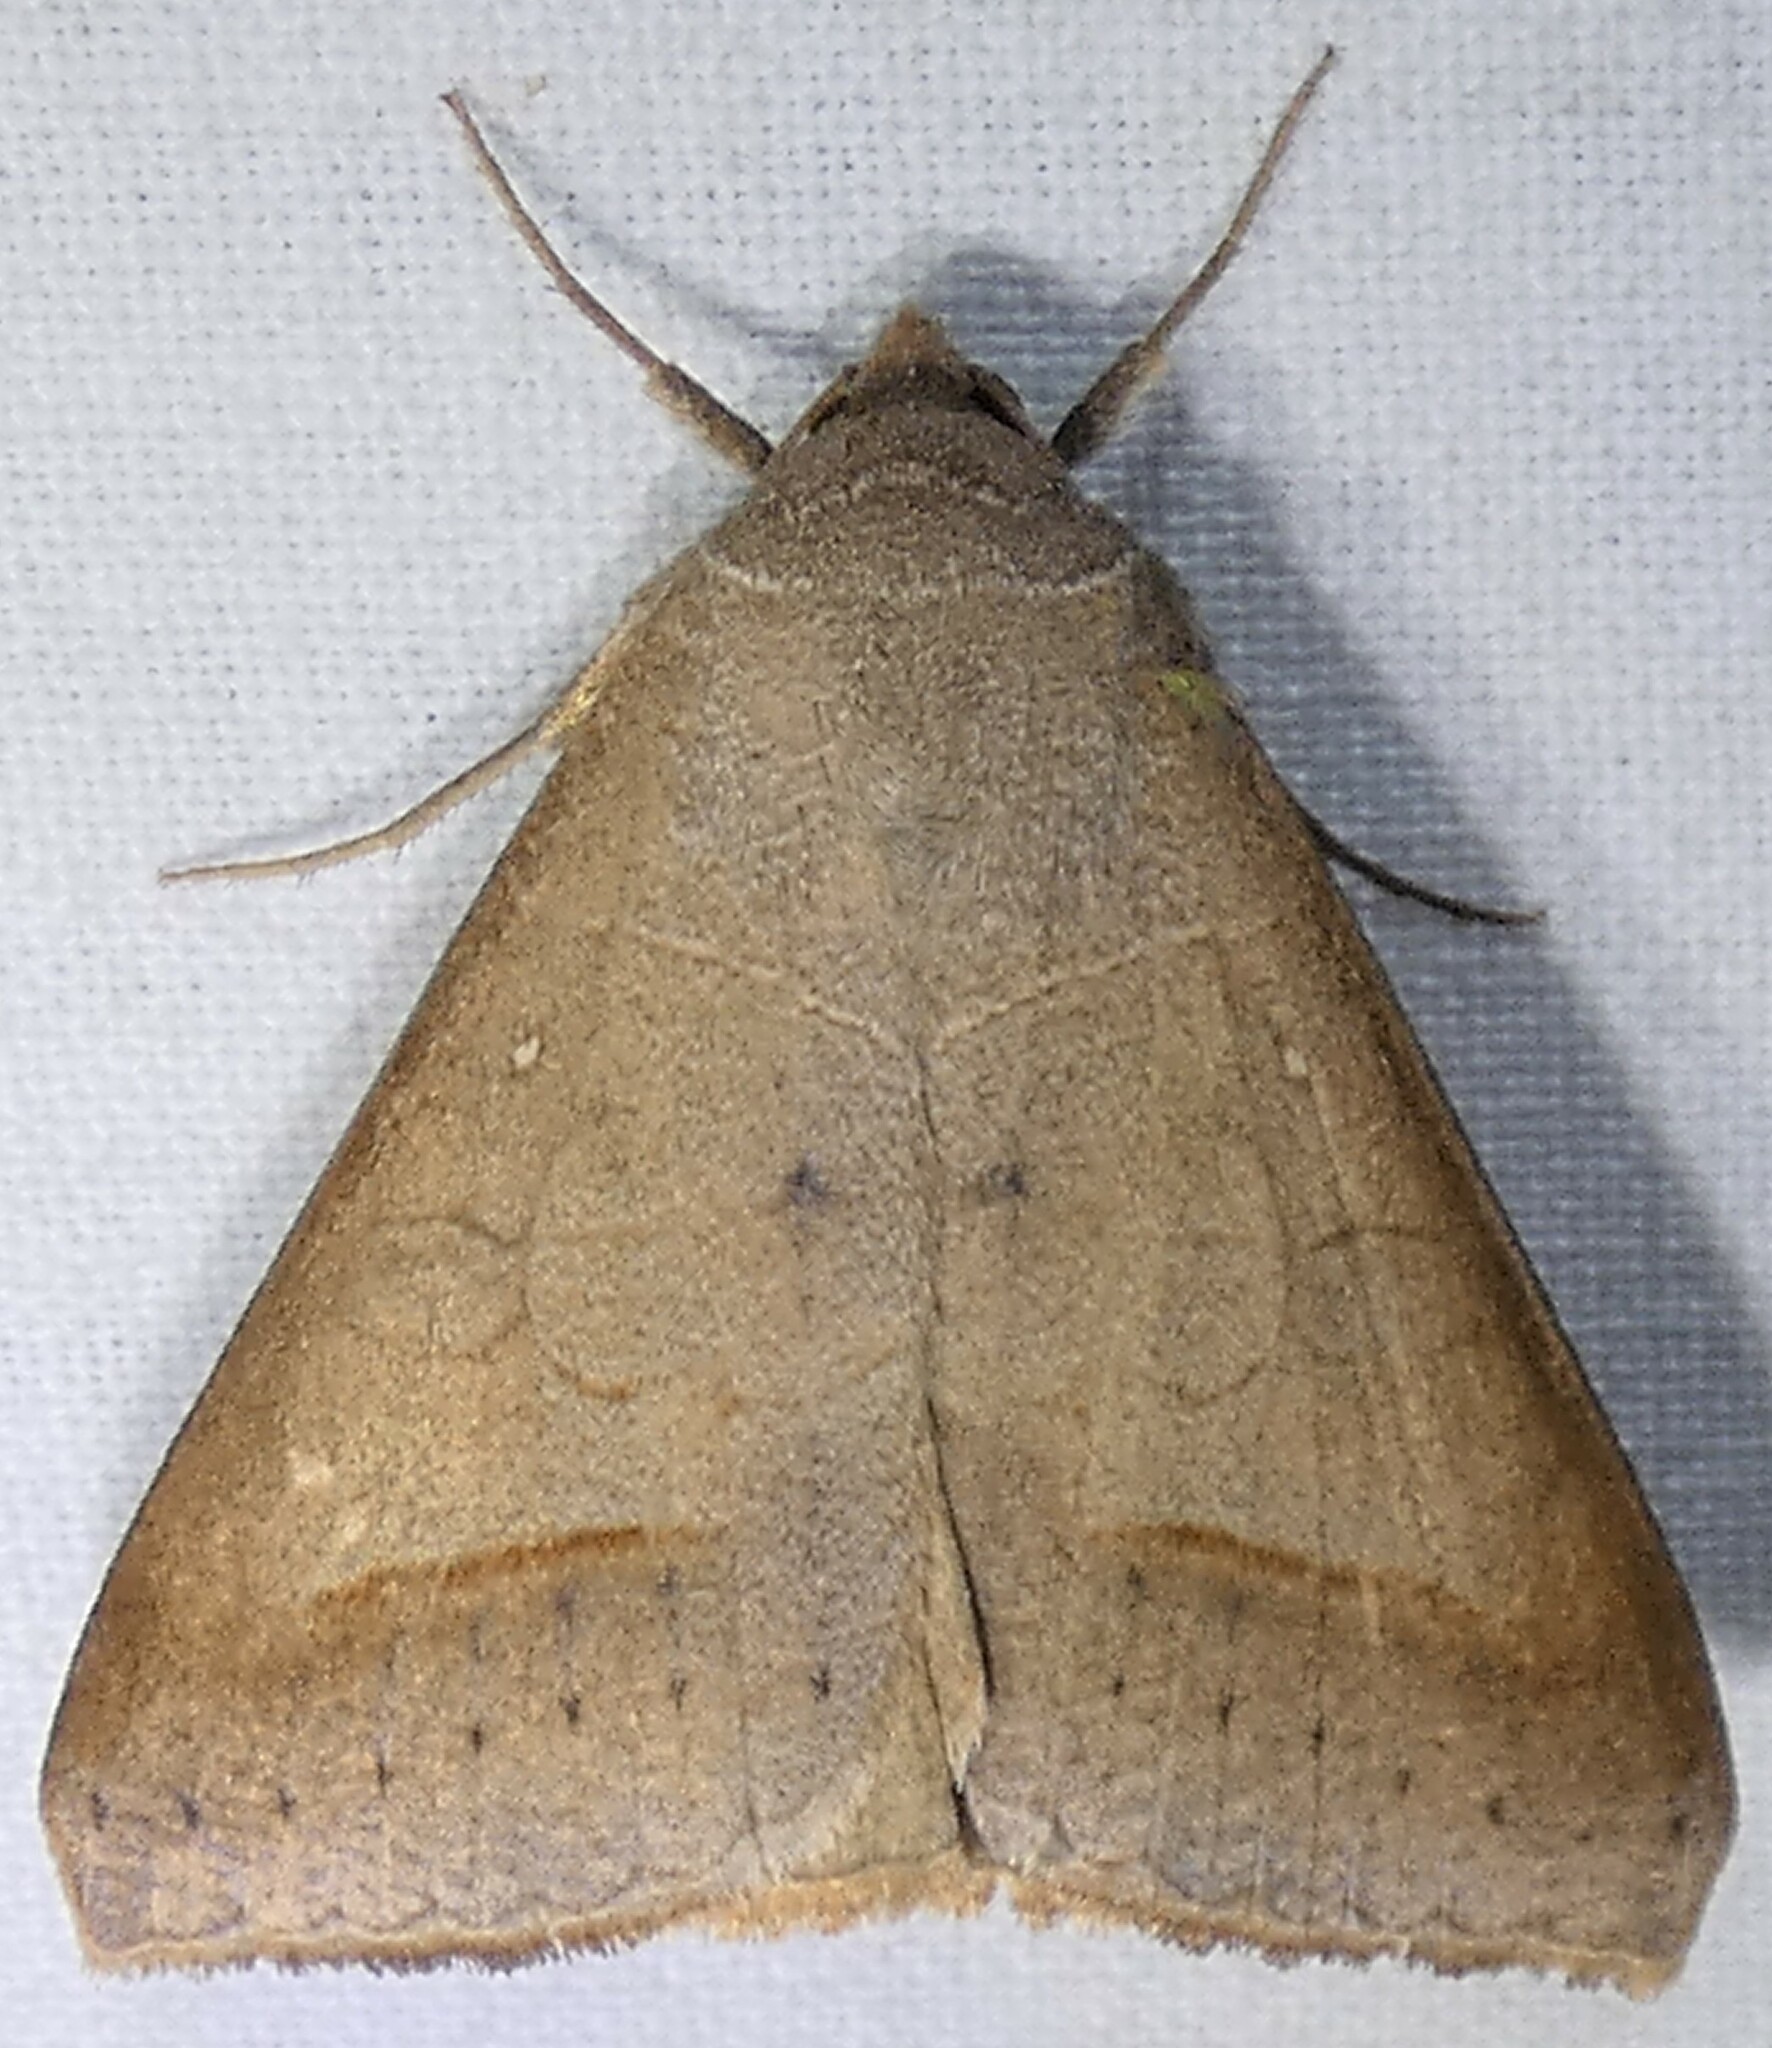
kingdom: Animalia
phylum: Arthropoda
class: Insecta
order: Lepidoptera
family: Erebidae
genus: Mocis
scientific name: Mocis marcida
